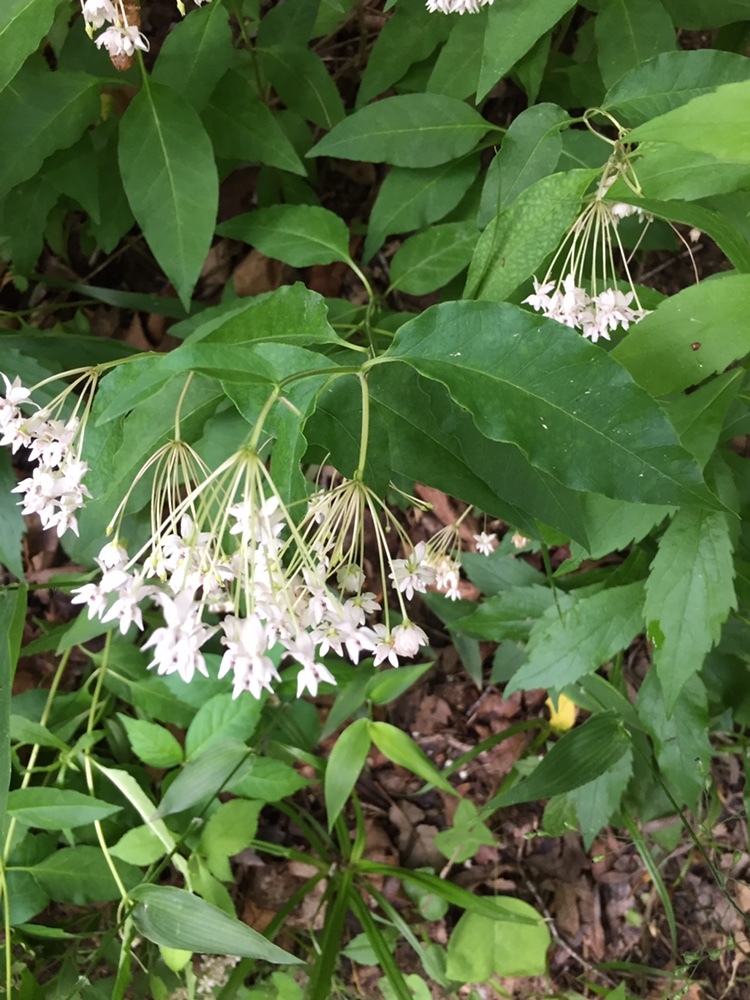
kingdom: Plantae
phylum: Tracheophyta
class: Magnoliopsida
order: Gentianales
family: Apocynaceae
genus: Asclepias
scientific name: Asclepias quadrifolia
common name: Whorled milkweed
